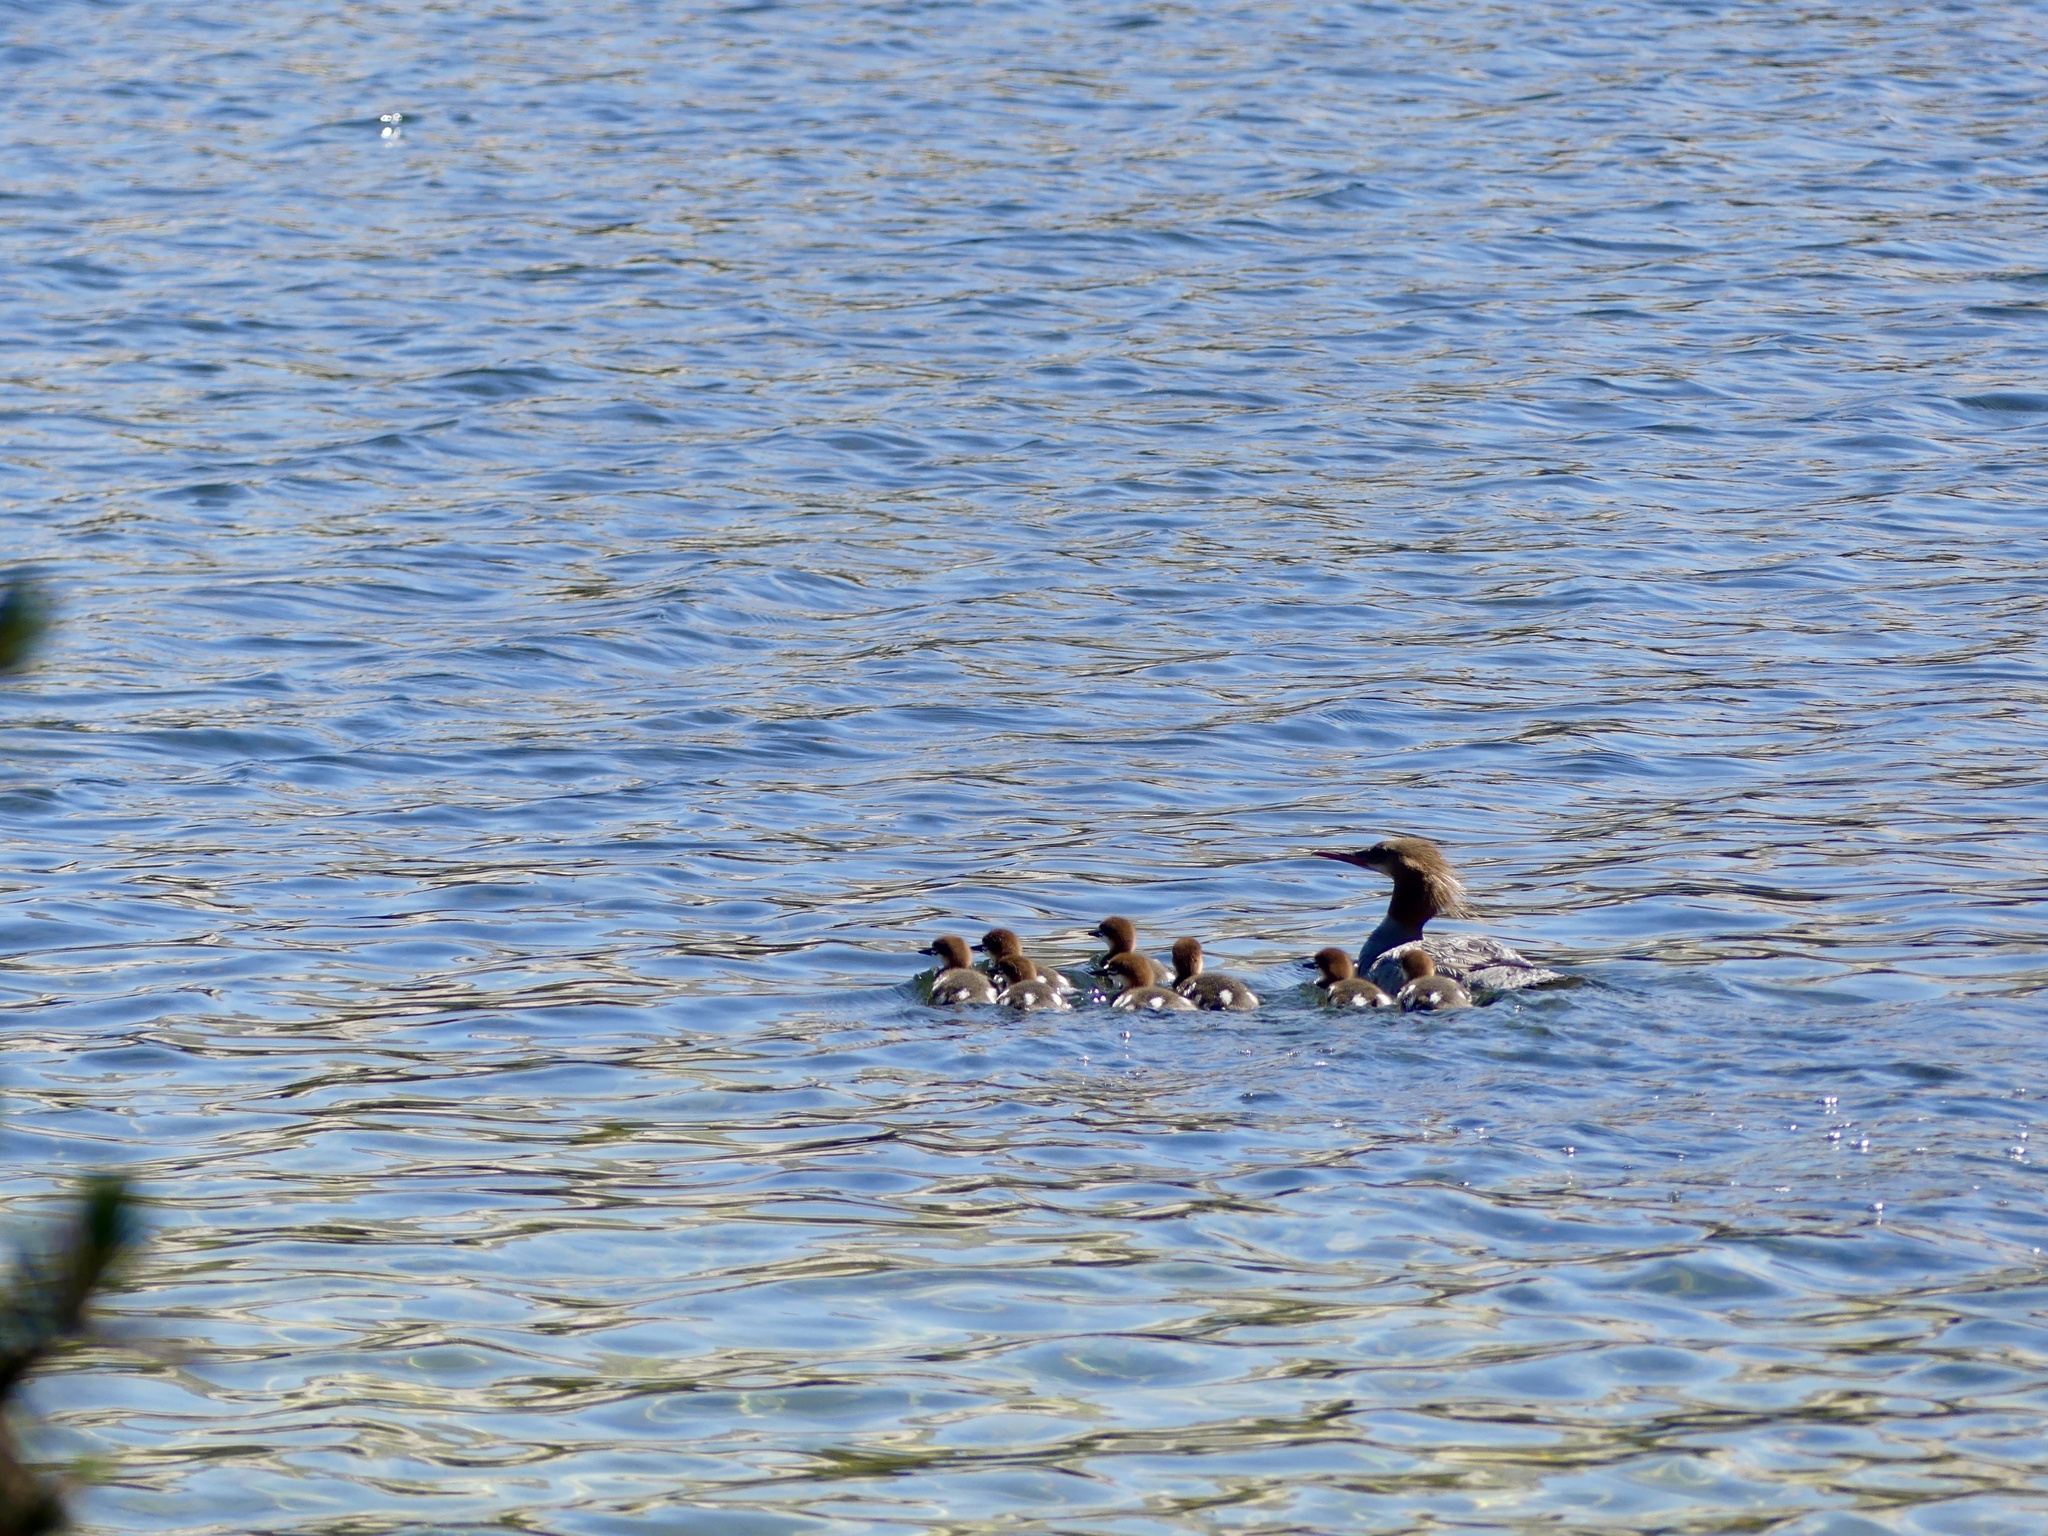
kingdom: Animalia
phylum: Chordata
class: Aves
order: Anseriformes
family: Anatidae
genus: Mergus
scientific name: Mergus merganser
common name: Common merganser
